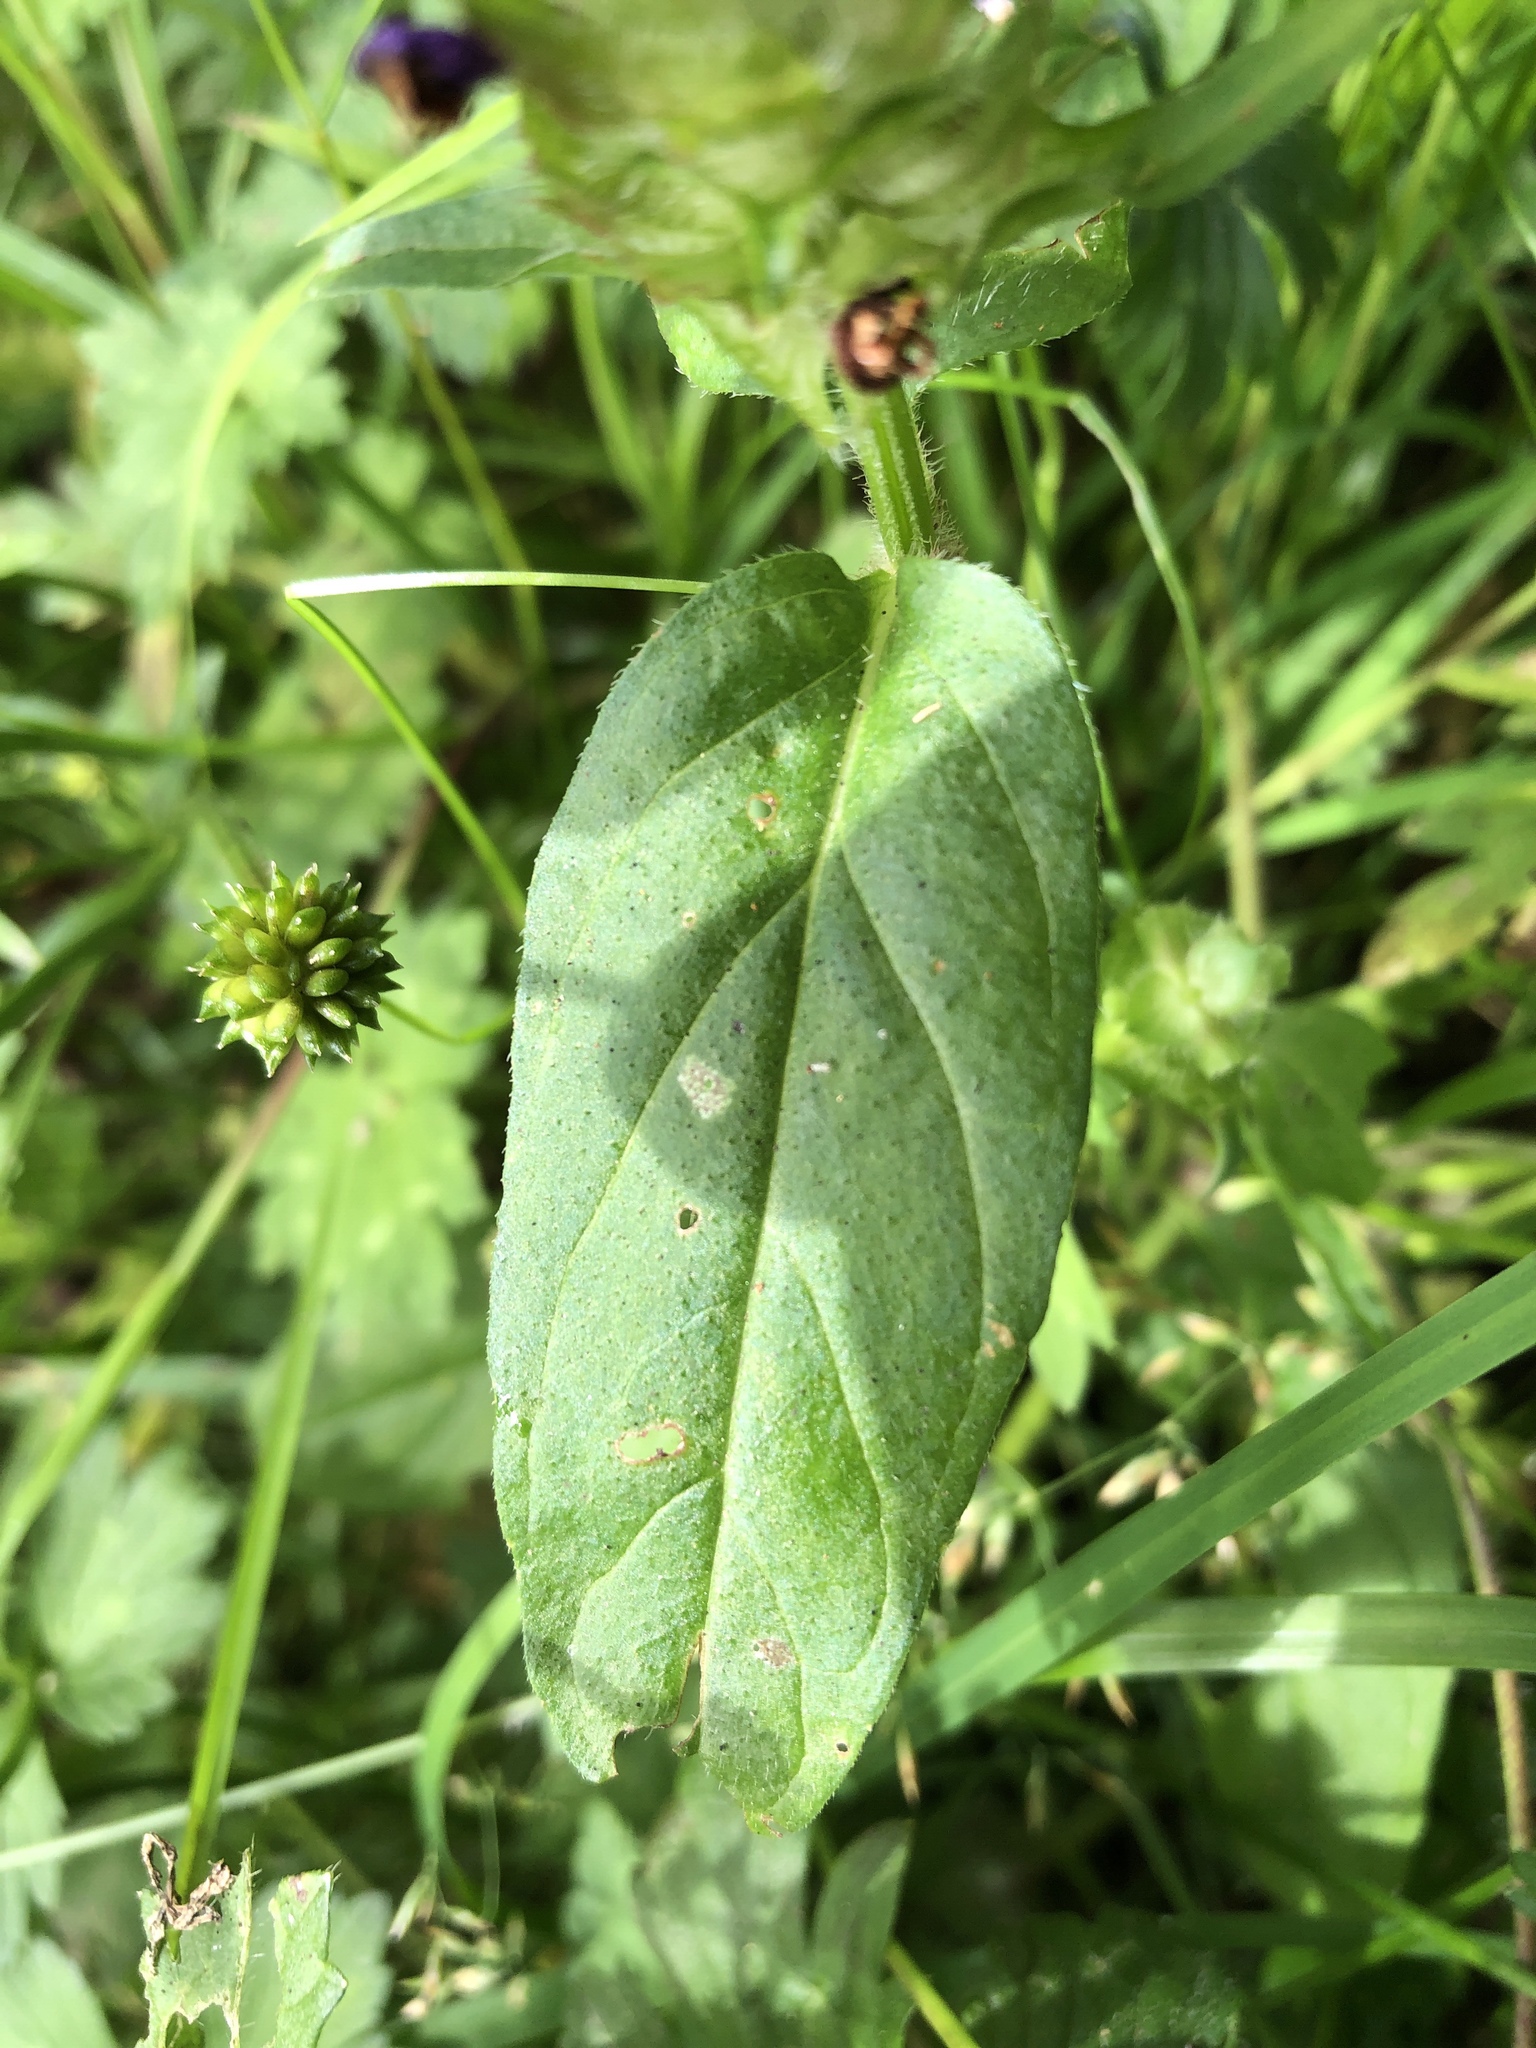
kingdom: Plantae
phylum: Tracheophyta
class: Magnoliopsida
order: Lamiales
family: Lamiaceae
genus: Prunella
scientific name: Prunella vulgaris
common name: Heal-all
